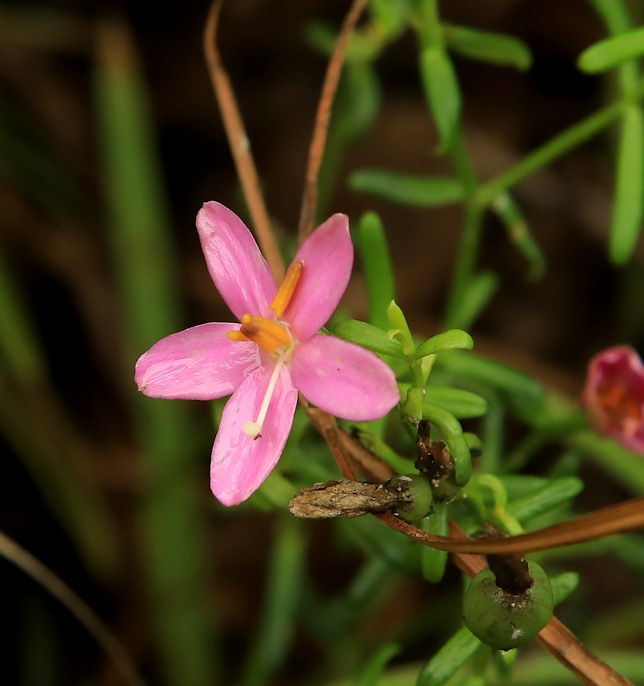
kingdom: Plantae
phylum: Tracheophyta
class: Magnoliopsida
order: Gentianales
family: Gentianaceae
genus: Chironia
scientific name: Chironia baccifera
